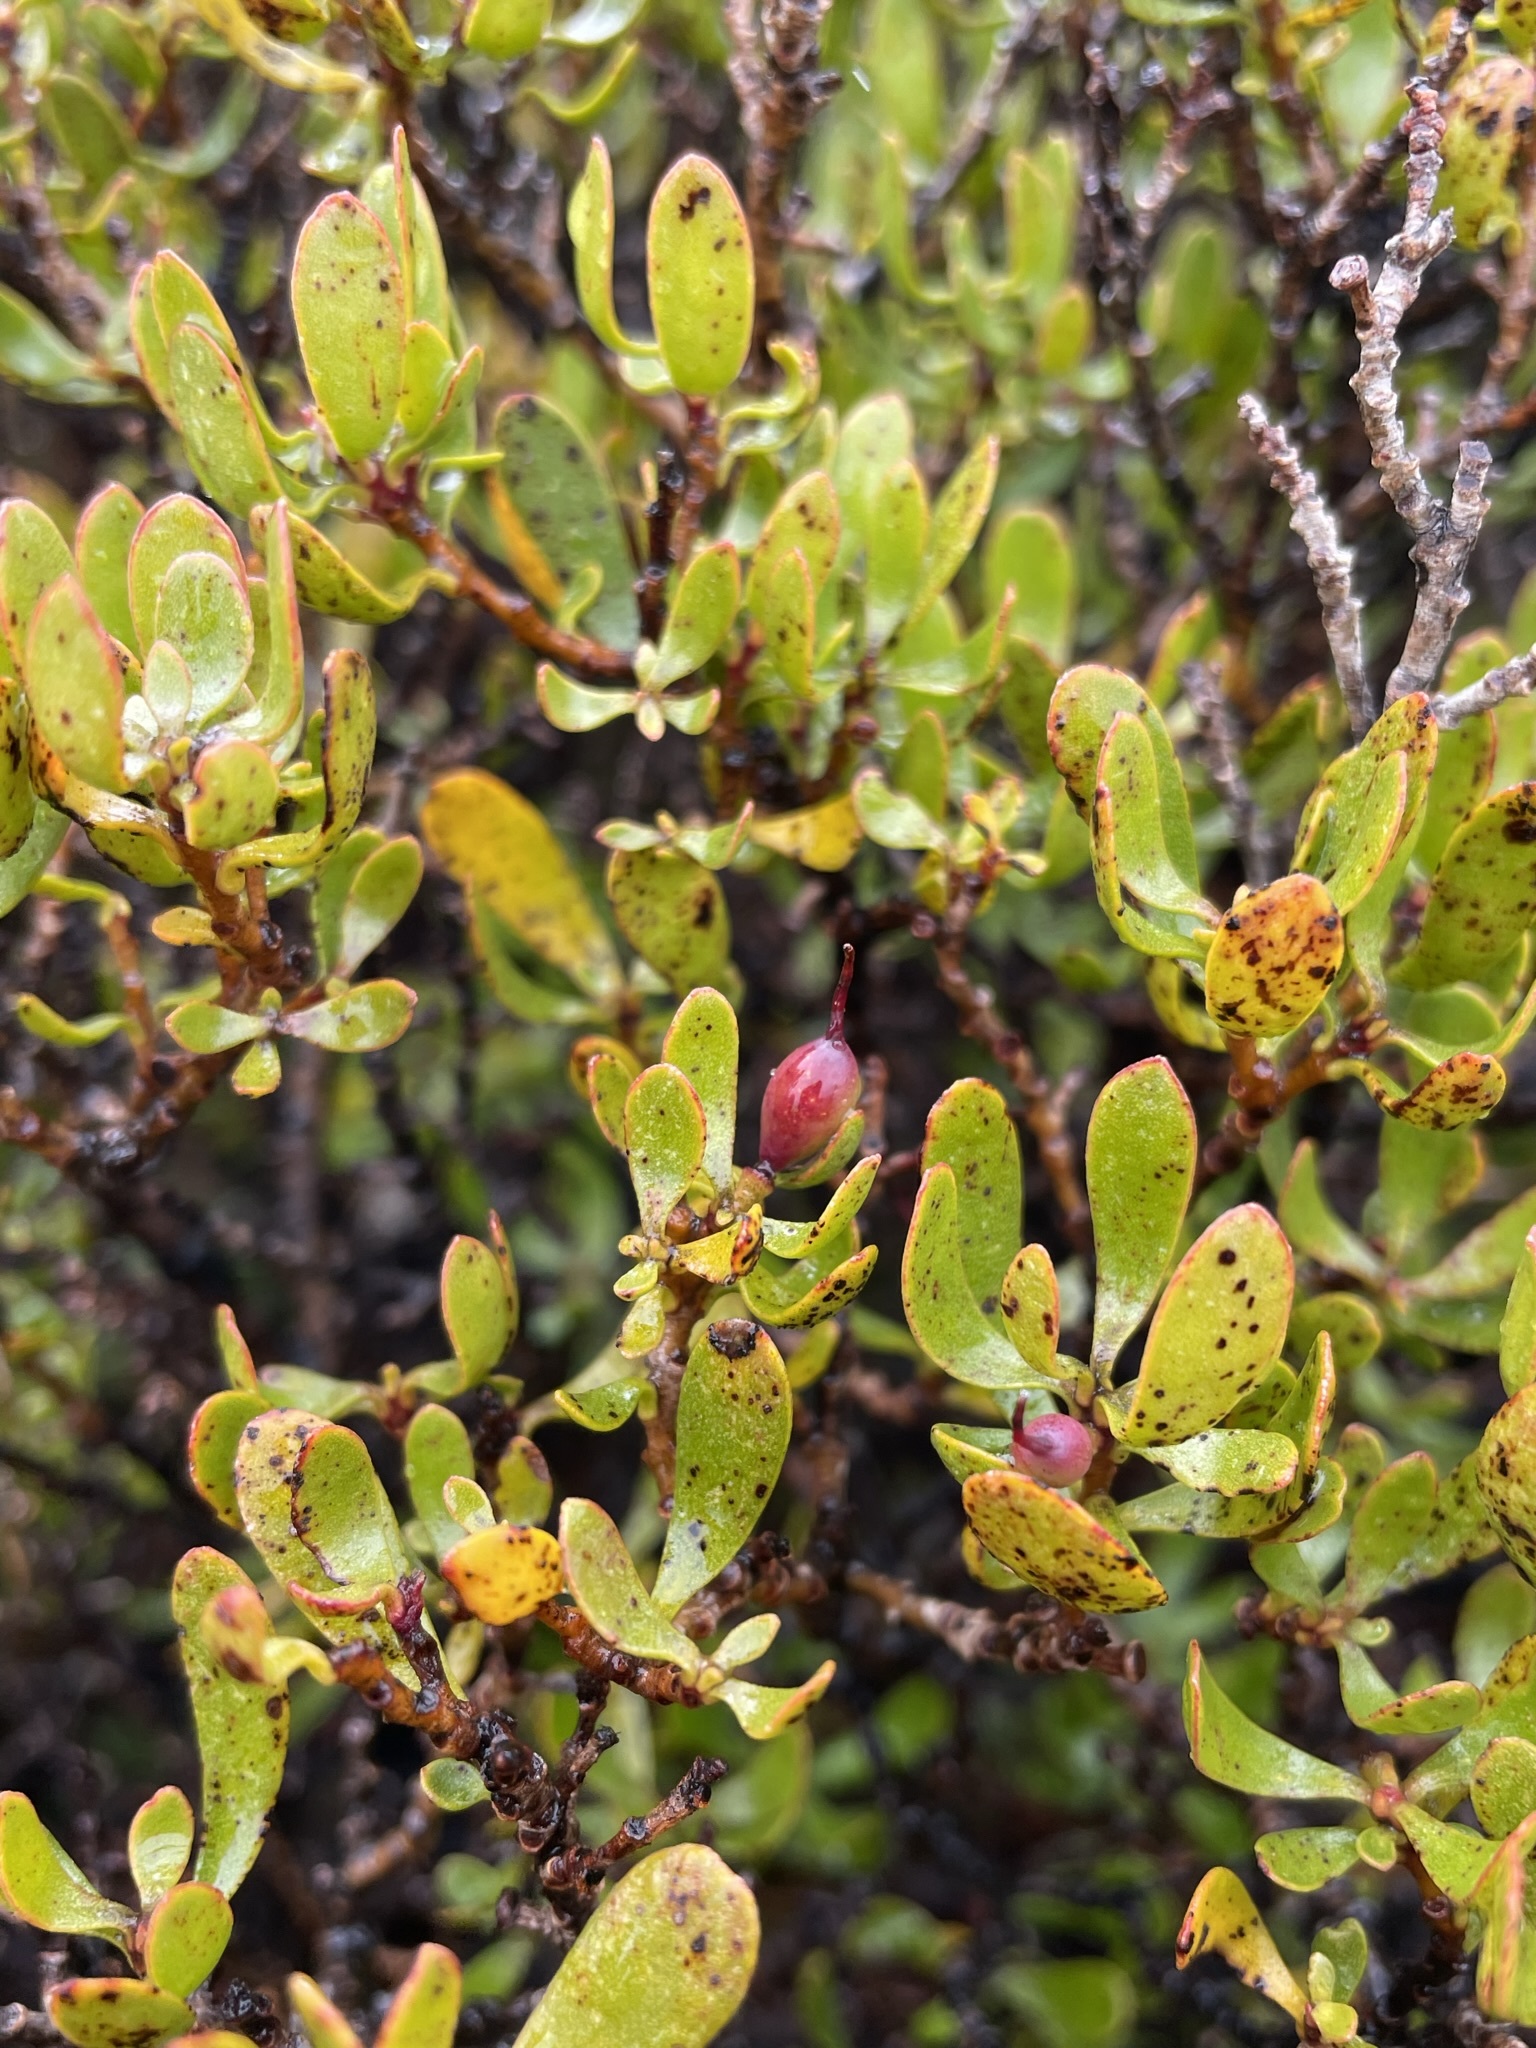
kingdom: Plantae
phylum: Tracheophyta
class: Magnoliopsida
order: Proteales
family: Proteaceae
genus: Persoonia
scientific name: Persoonia gunnii
